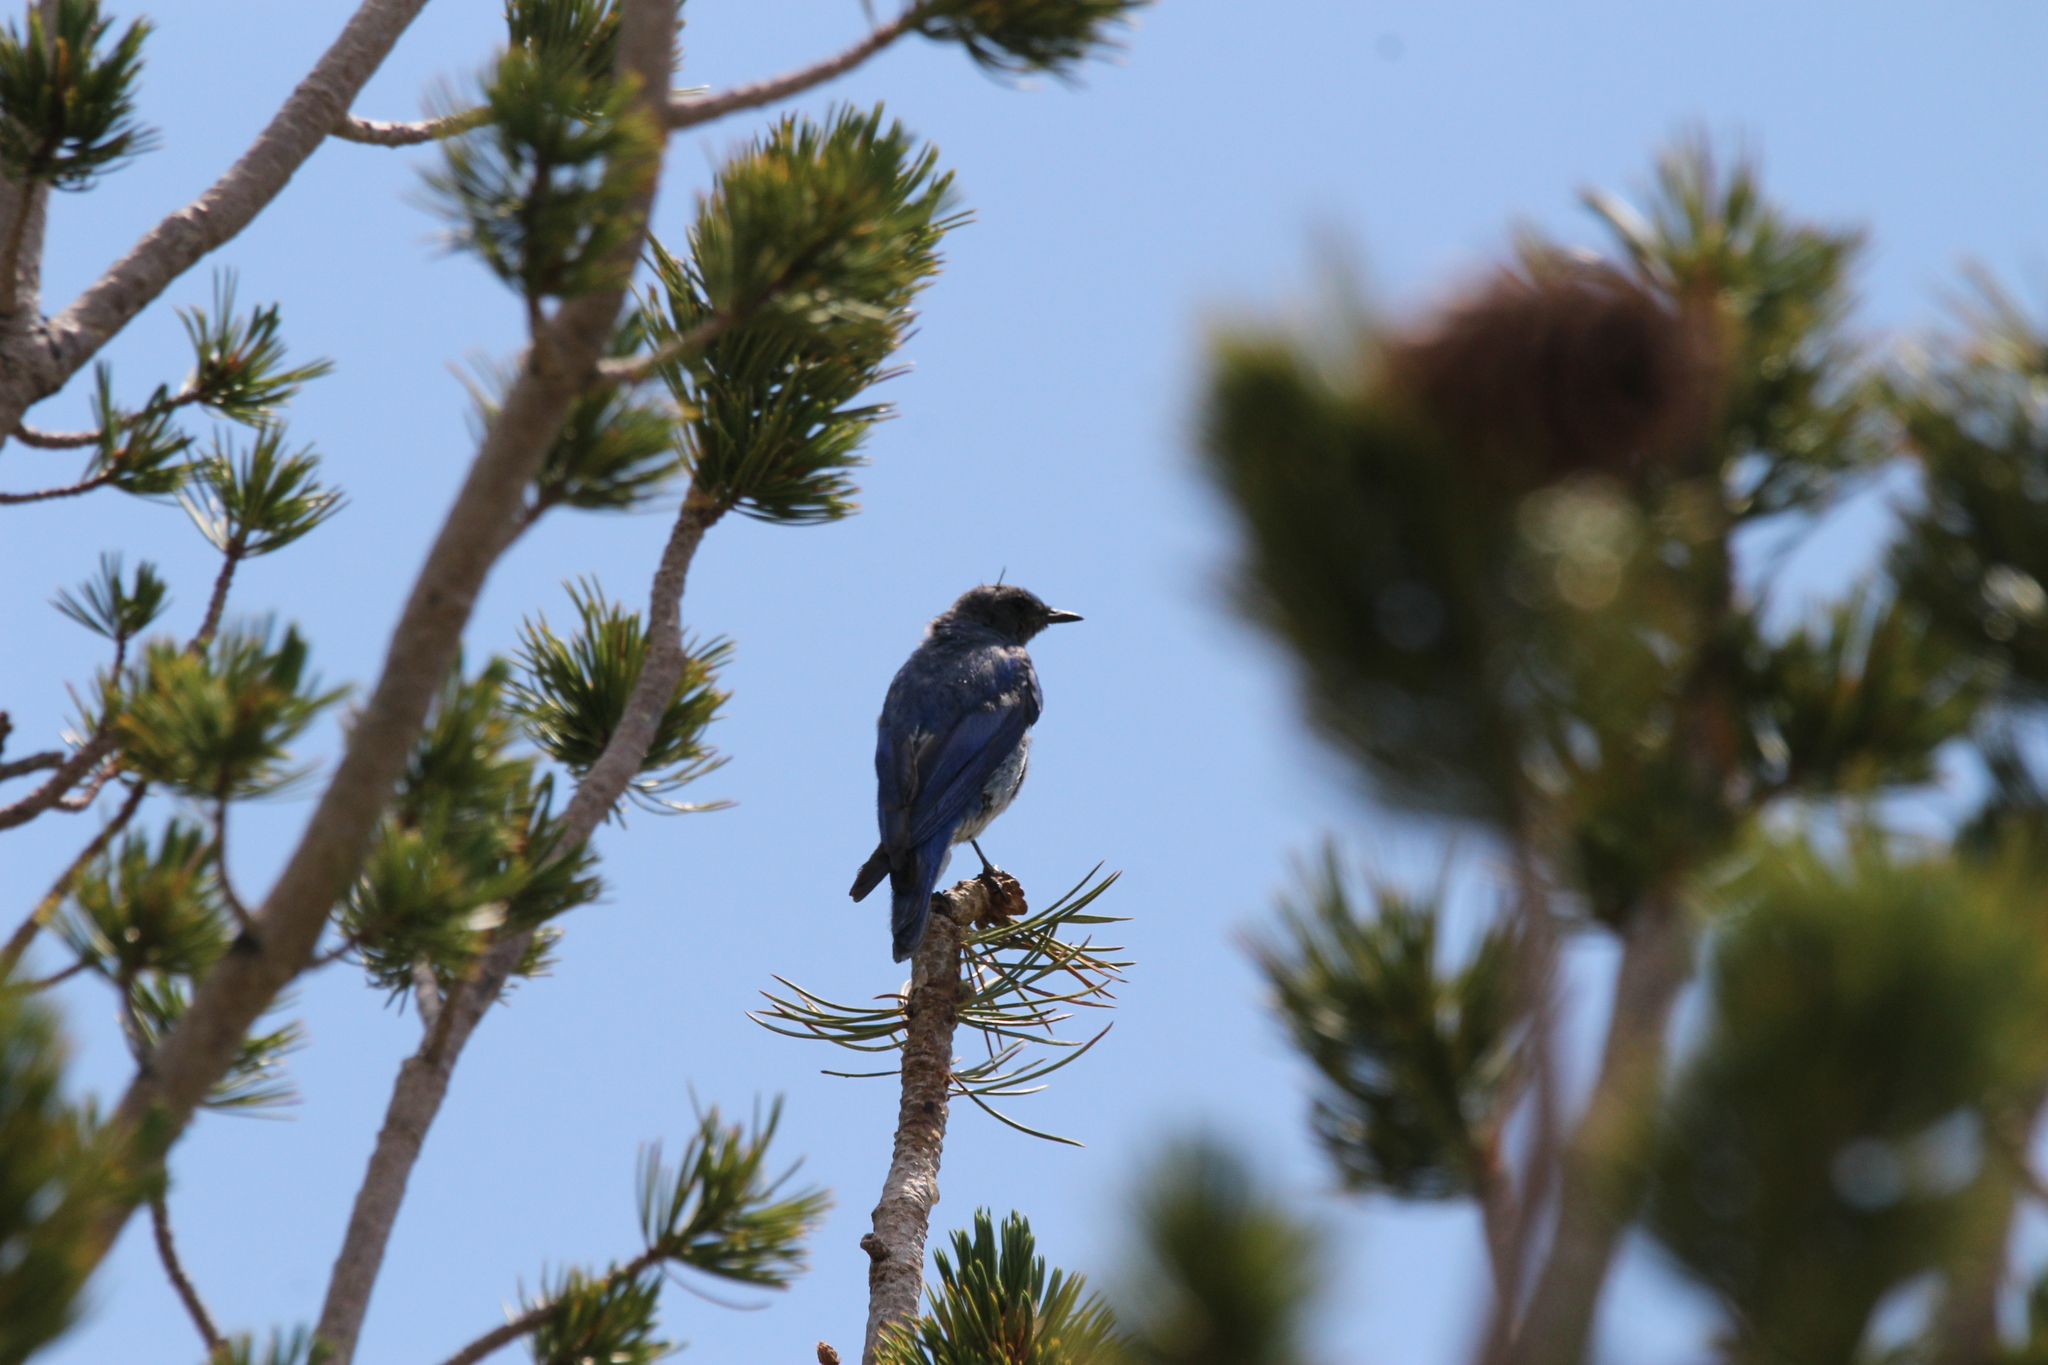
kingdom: Animalia
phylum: Chordata
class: Aves
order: Passeriformes
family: Turdidae
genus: Sialia
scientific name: Sialia currucoides
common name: Mountain bluebird
